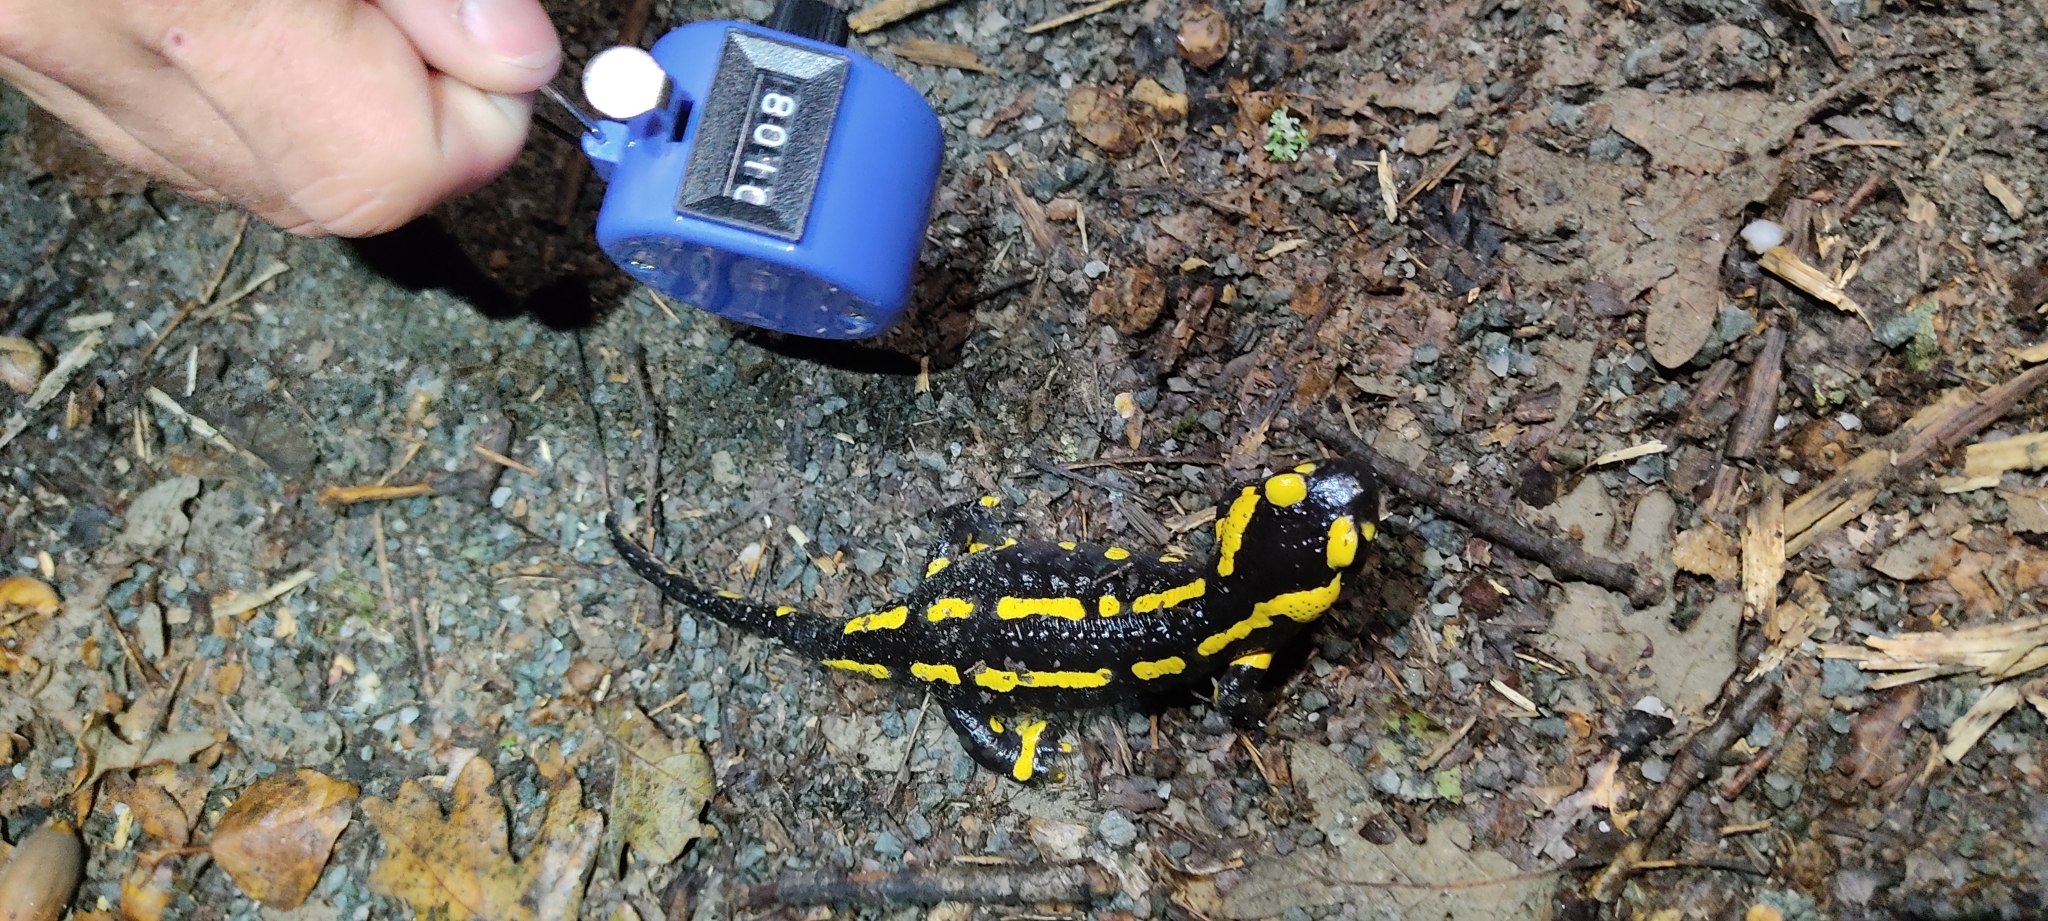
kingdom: Animalia
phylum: Chordata
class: Amphibia
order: Caudata
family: Salamandridae
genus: Salamandra
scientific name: Salamandra salamandra
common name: Fire salamander
